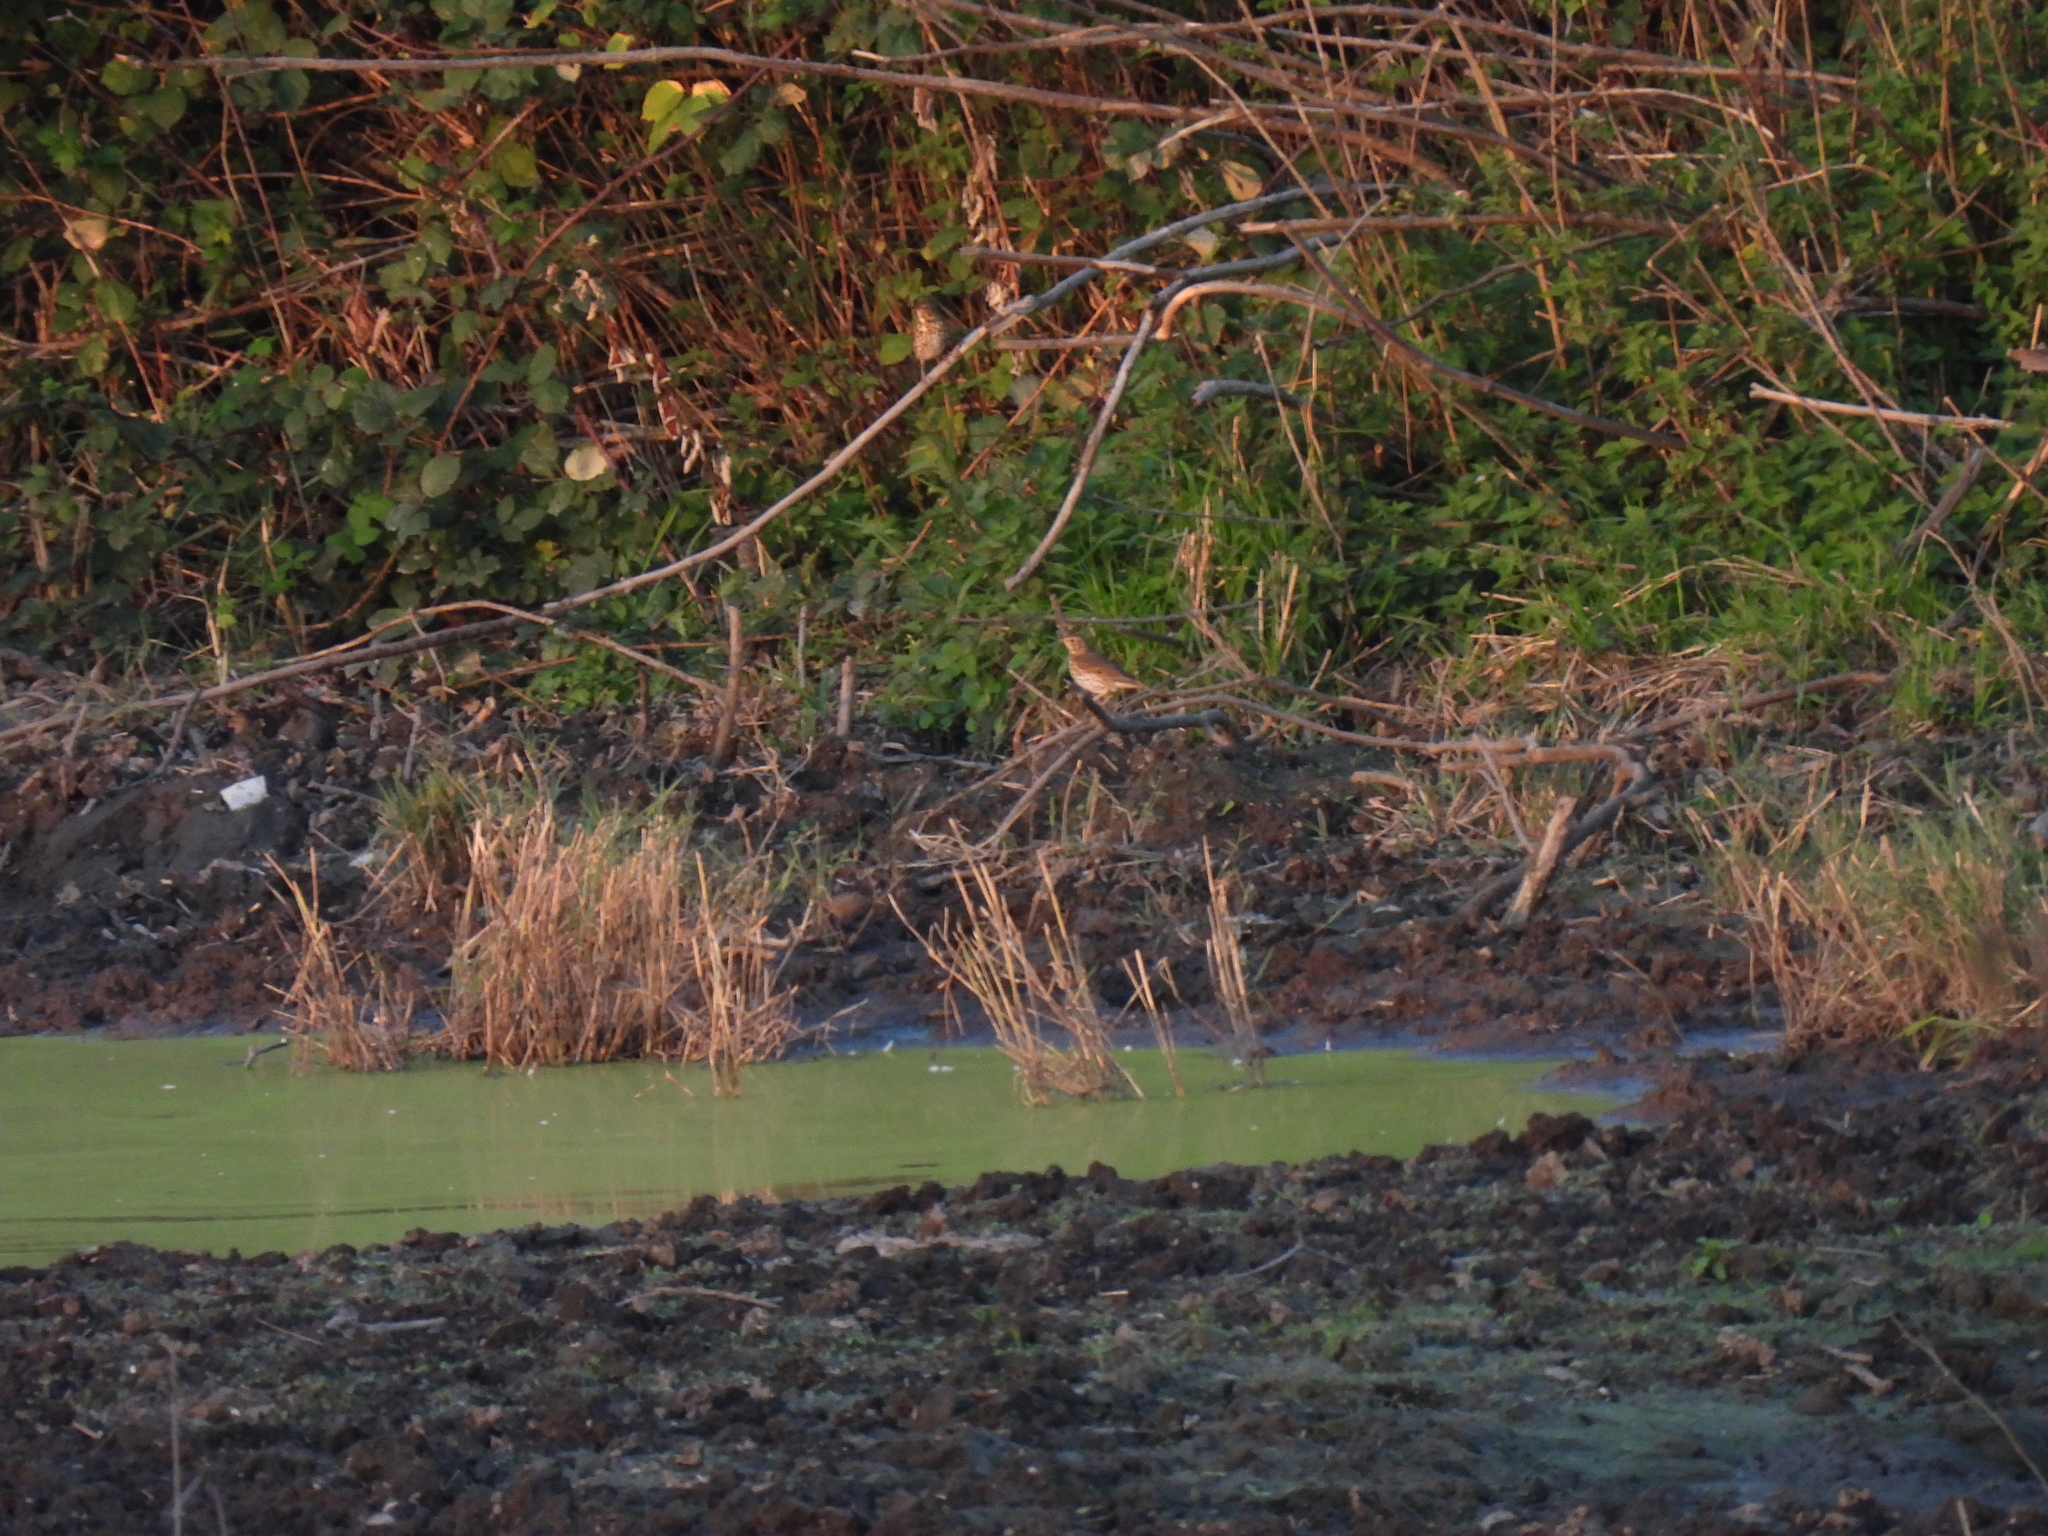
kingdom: Animalia
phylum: Chordata
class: Aves
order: Passeriformes
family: Turdidae
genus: Turdus
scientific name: Turdus philomelos
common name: Song thrush
